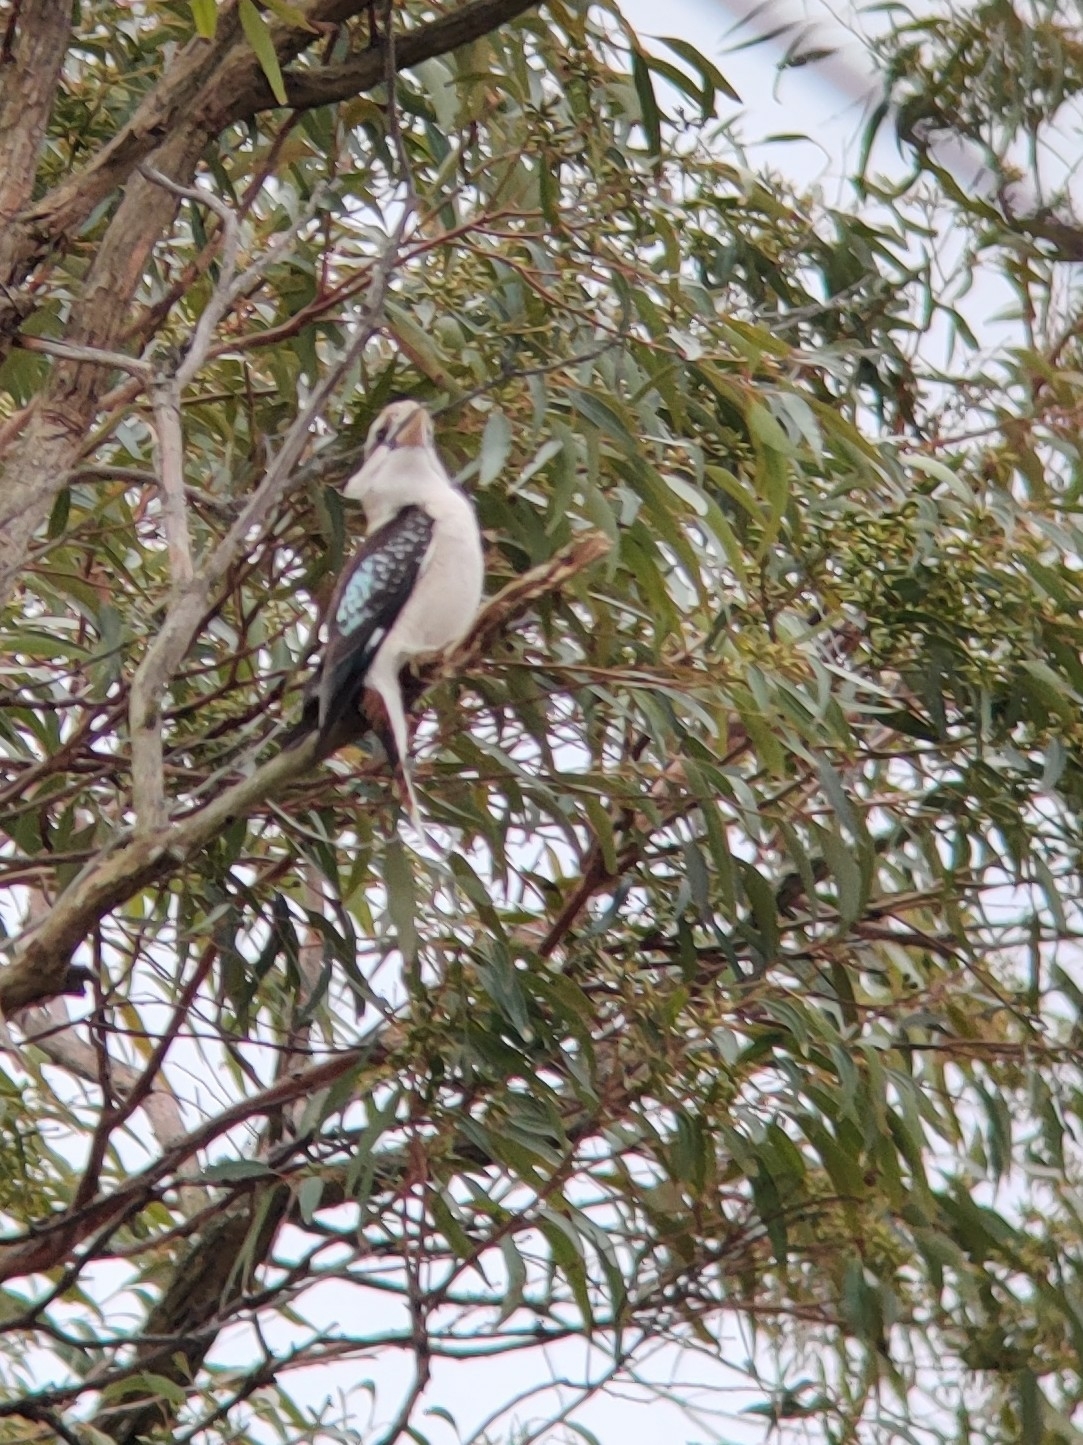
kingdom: Animalia
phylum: Chordata
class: Aves
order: Coraciiformes
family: Alcedinidae
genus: Dacelo
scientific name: Dacelo novaeguineae
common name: Laughing kookaburra
